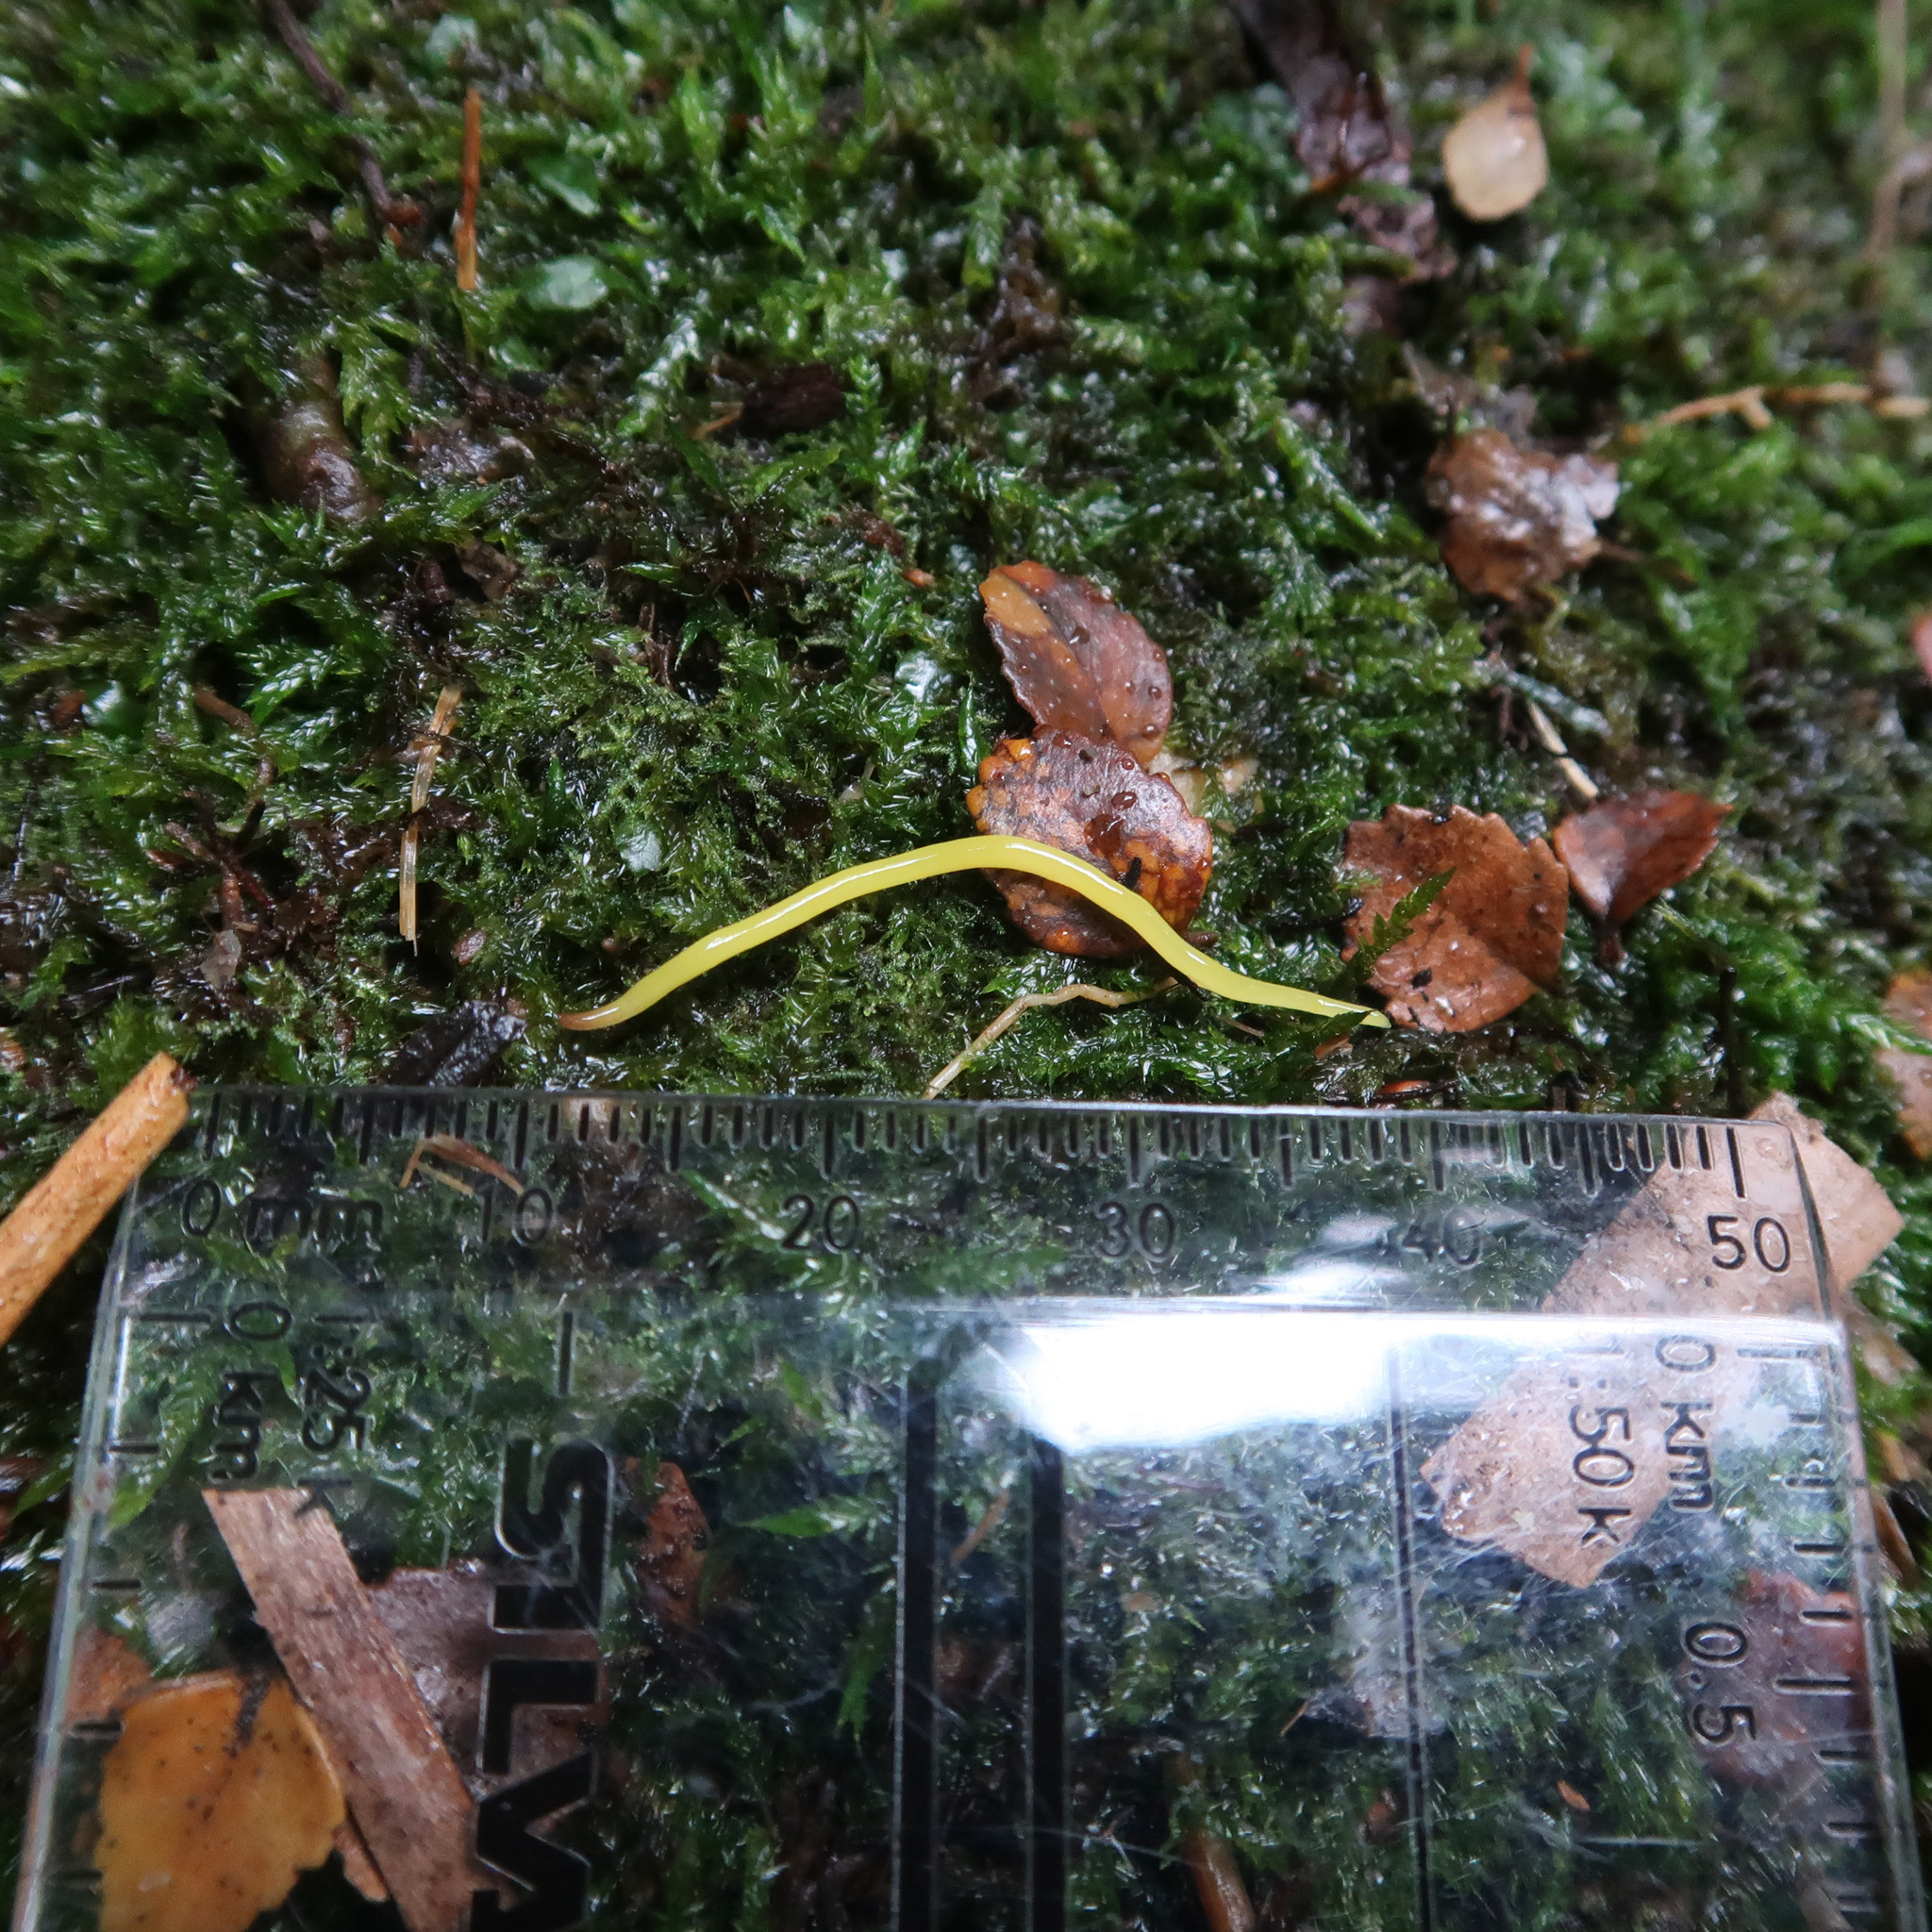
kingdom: Animalia
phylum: Platyhelminthes
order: Tricladida
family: Geoplanidae
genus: Fletchamia
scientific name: Fletchamia sugdeni
